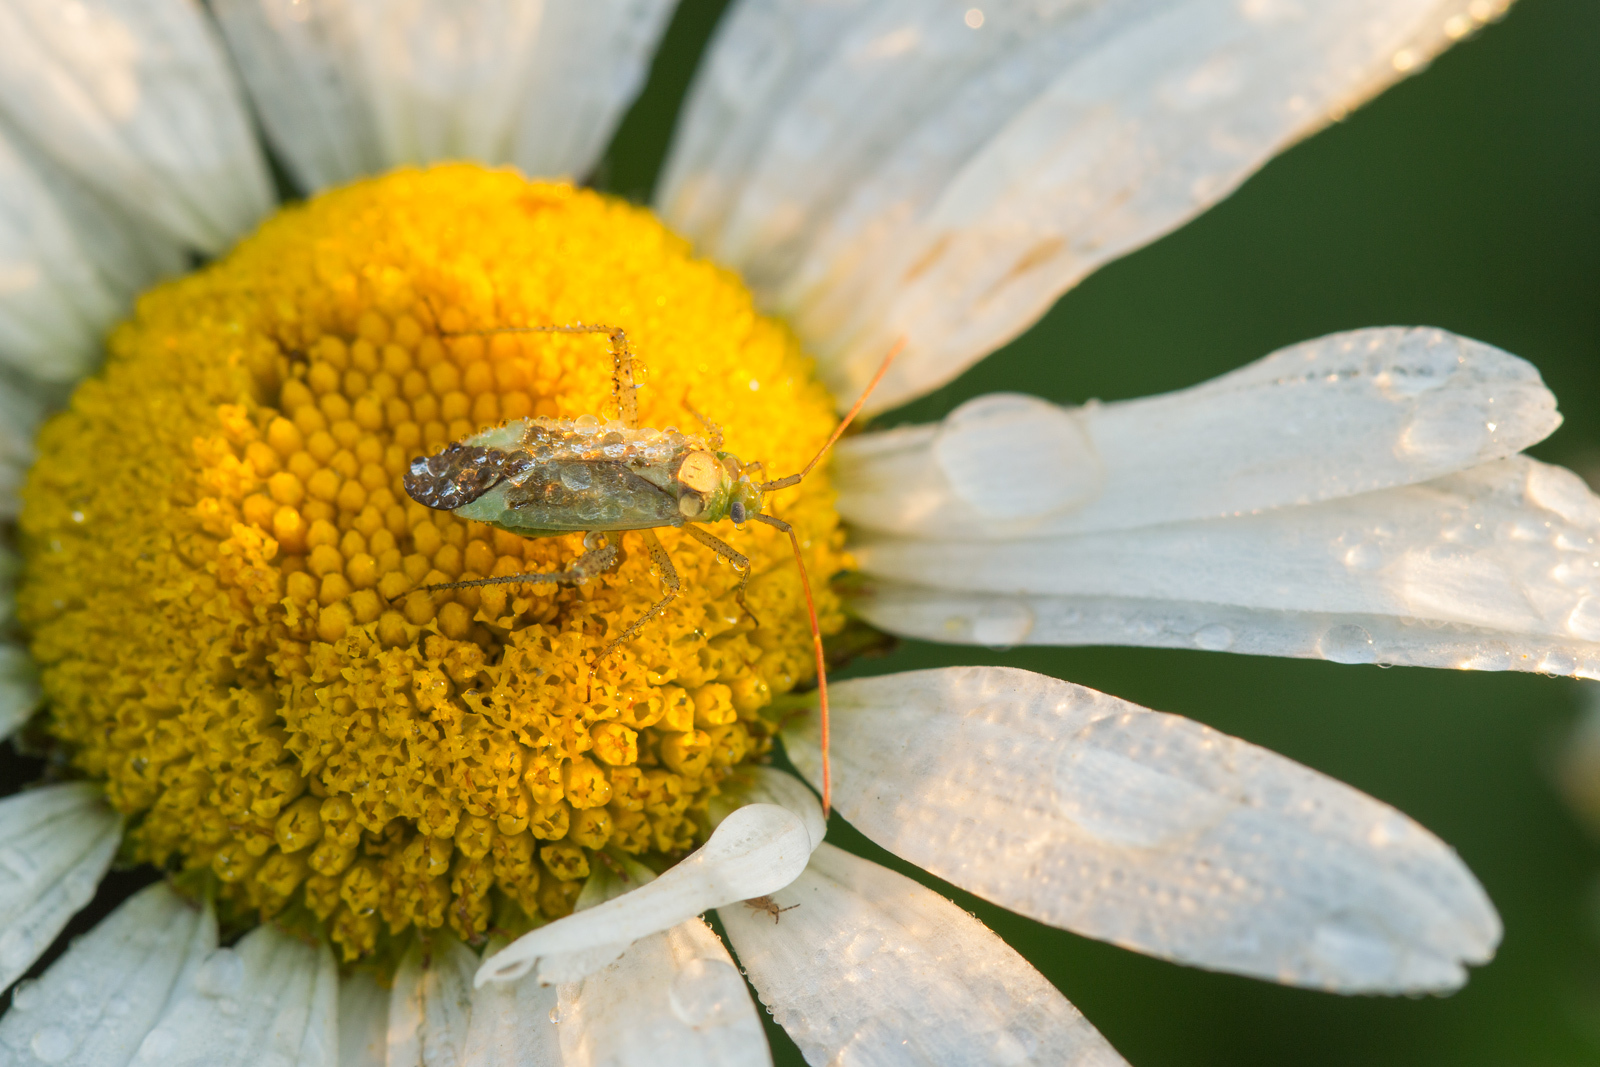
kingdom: Animalia
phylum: Arthropoda
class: Insecta
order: Hemiptera
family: Miridae
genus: Adelphocoris
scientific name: Adelphocoris lineolatus
